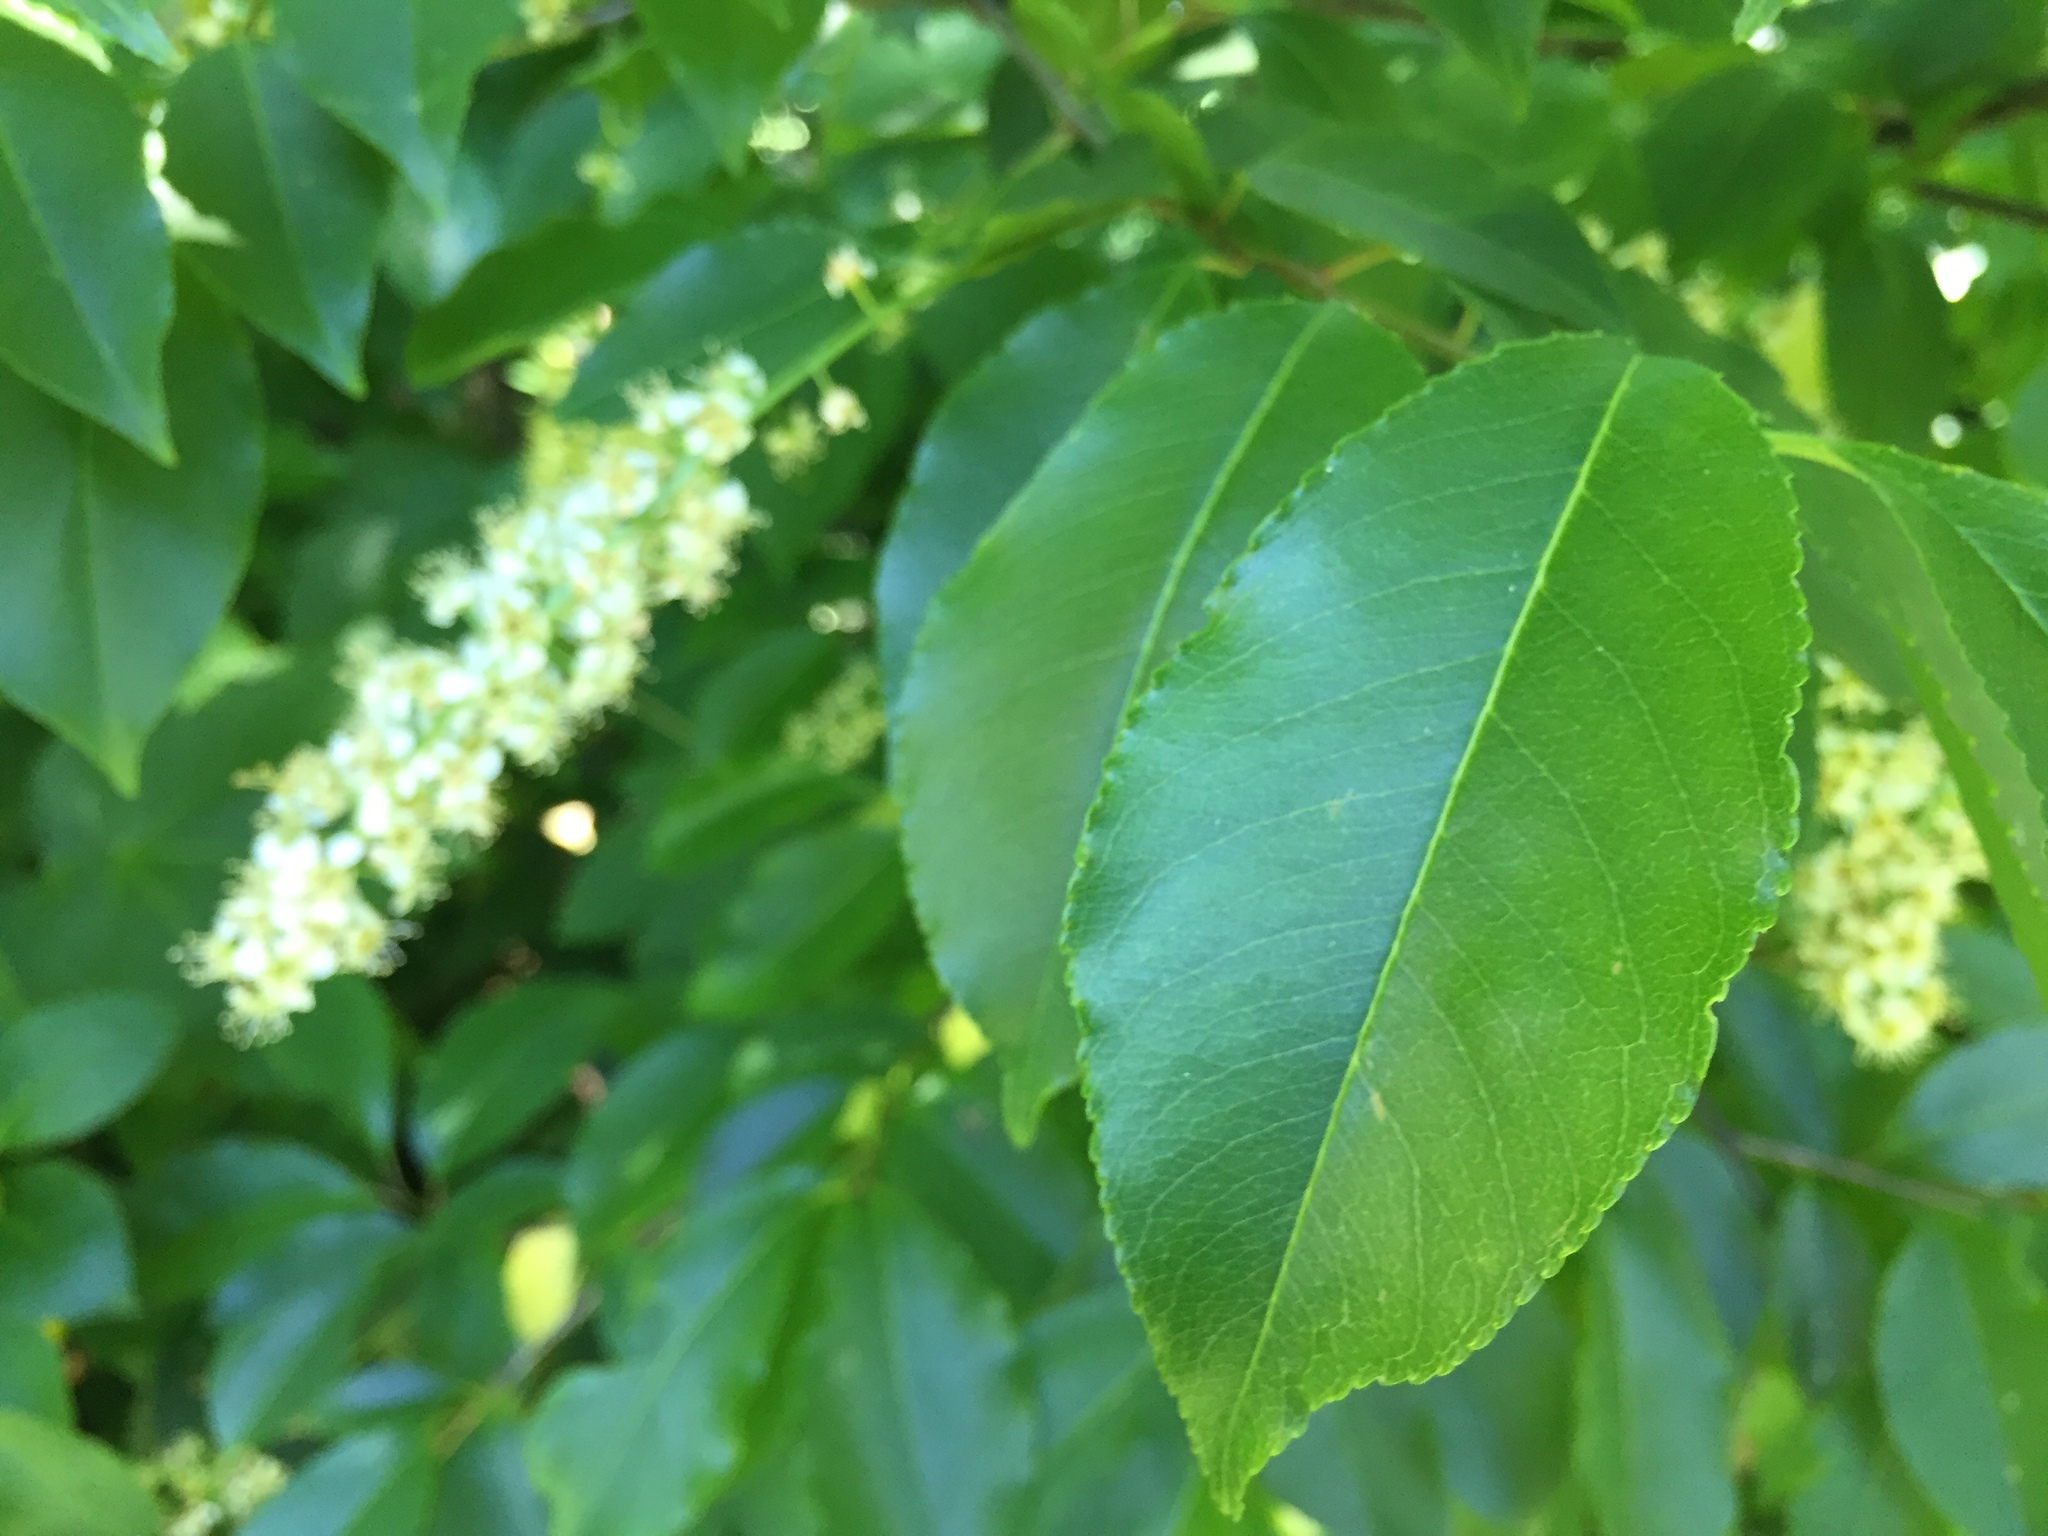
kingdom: Plantae
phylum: Tracheophyta
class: Magnoliopsida
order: Rosales
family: Rosaceae
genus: Prunus
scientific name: Prunus serotina
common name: Black cherry
